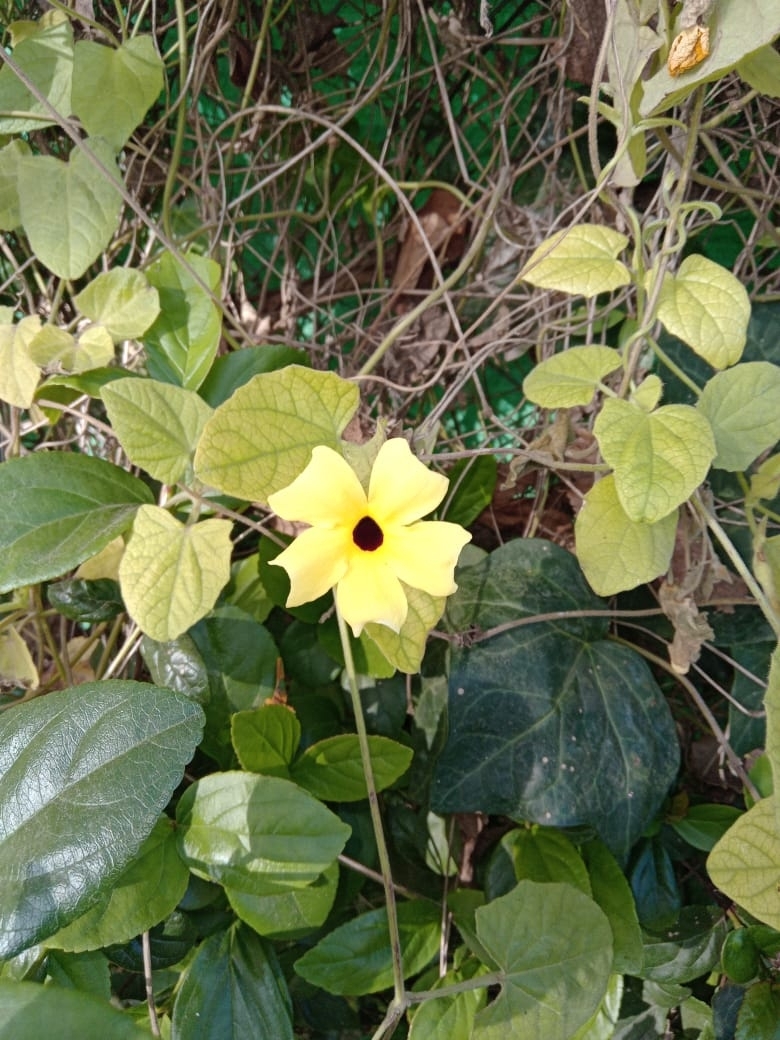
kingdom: Plantae
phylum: Tracheophyta
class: Magnoliopsida
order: Lamiales
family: Acanthaceae
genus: Thunbergia
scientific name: Thunbergia alata
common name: Blackeyed susan vine
